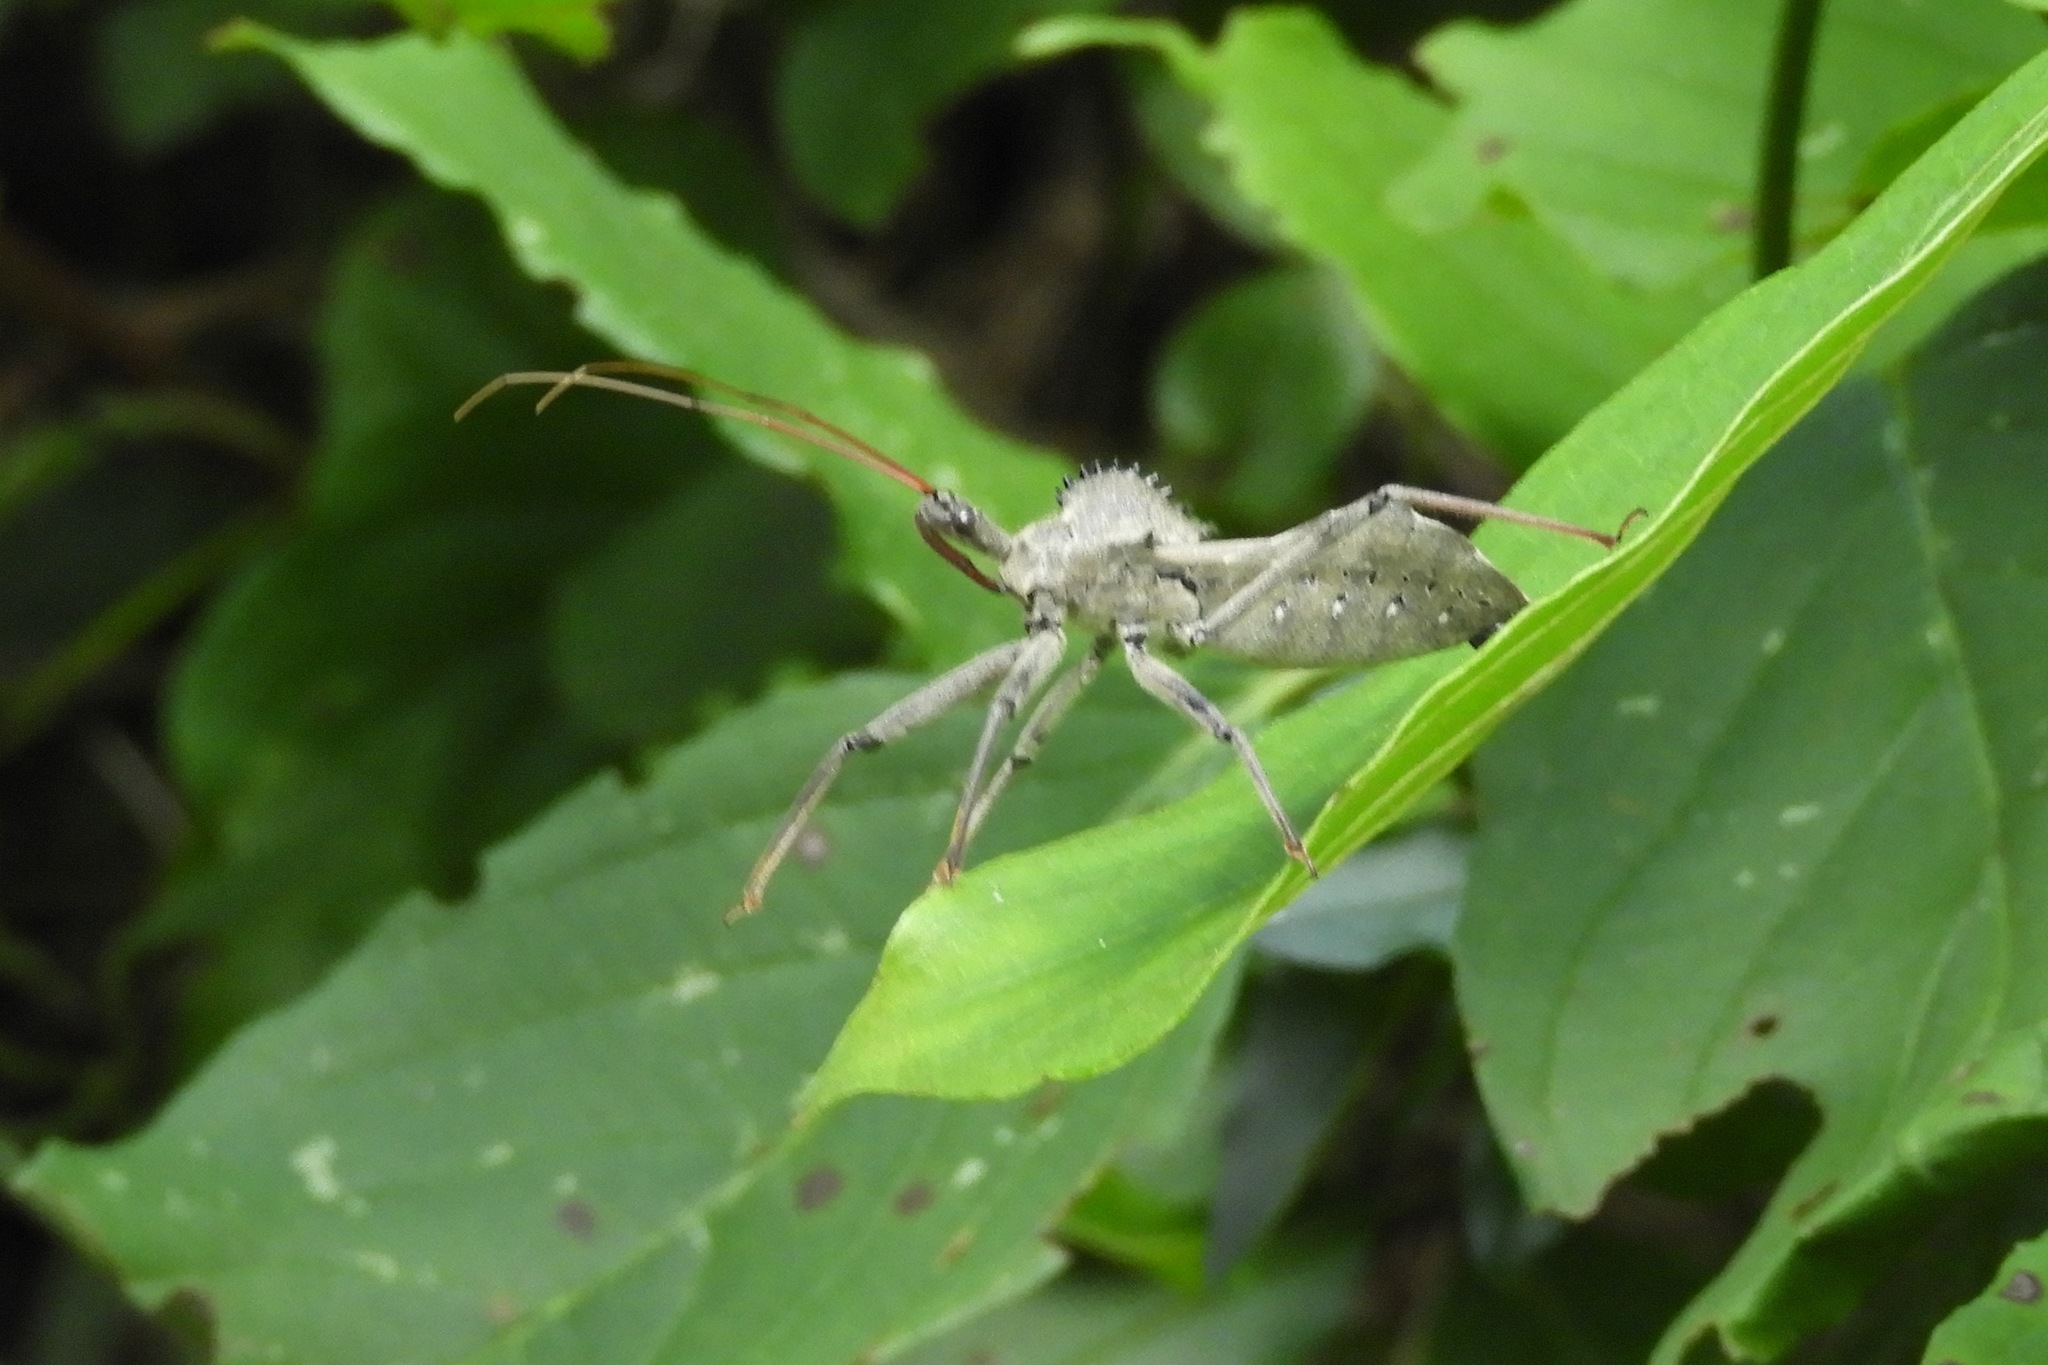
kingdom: Animalia
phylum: Arthropoda
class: Insecta
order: Hemiptera
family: Reduviidae
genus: Arilus
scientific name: Arilus cristatus
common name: North american wheel bug
